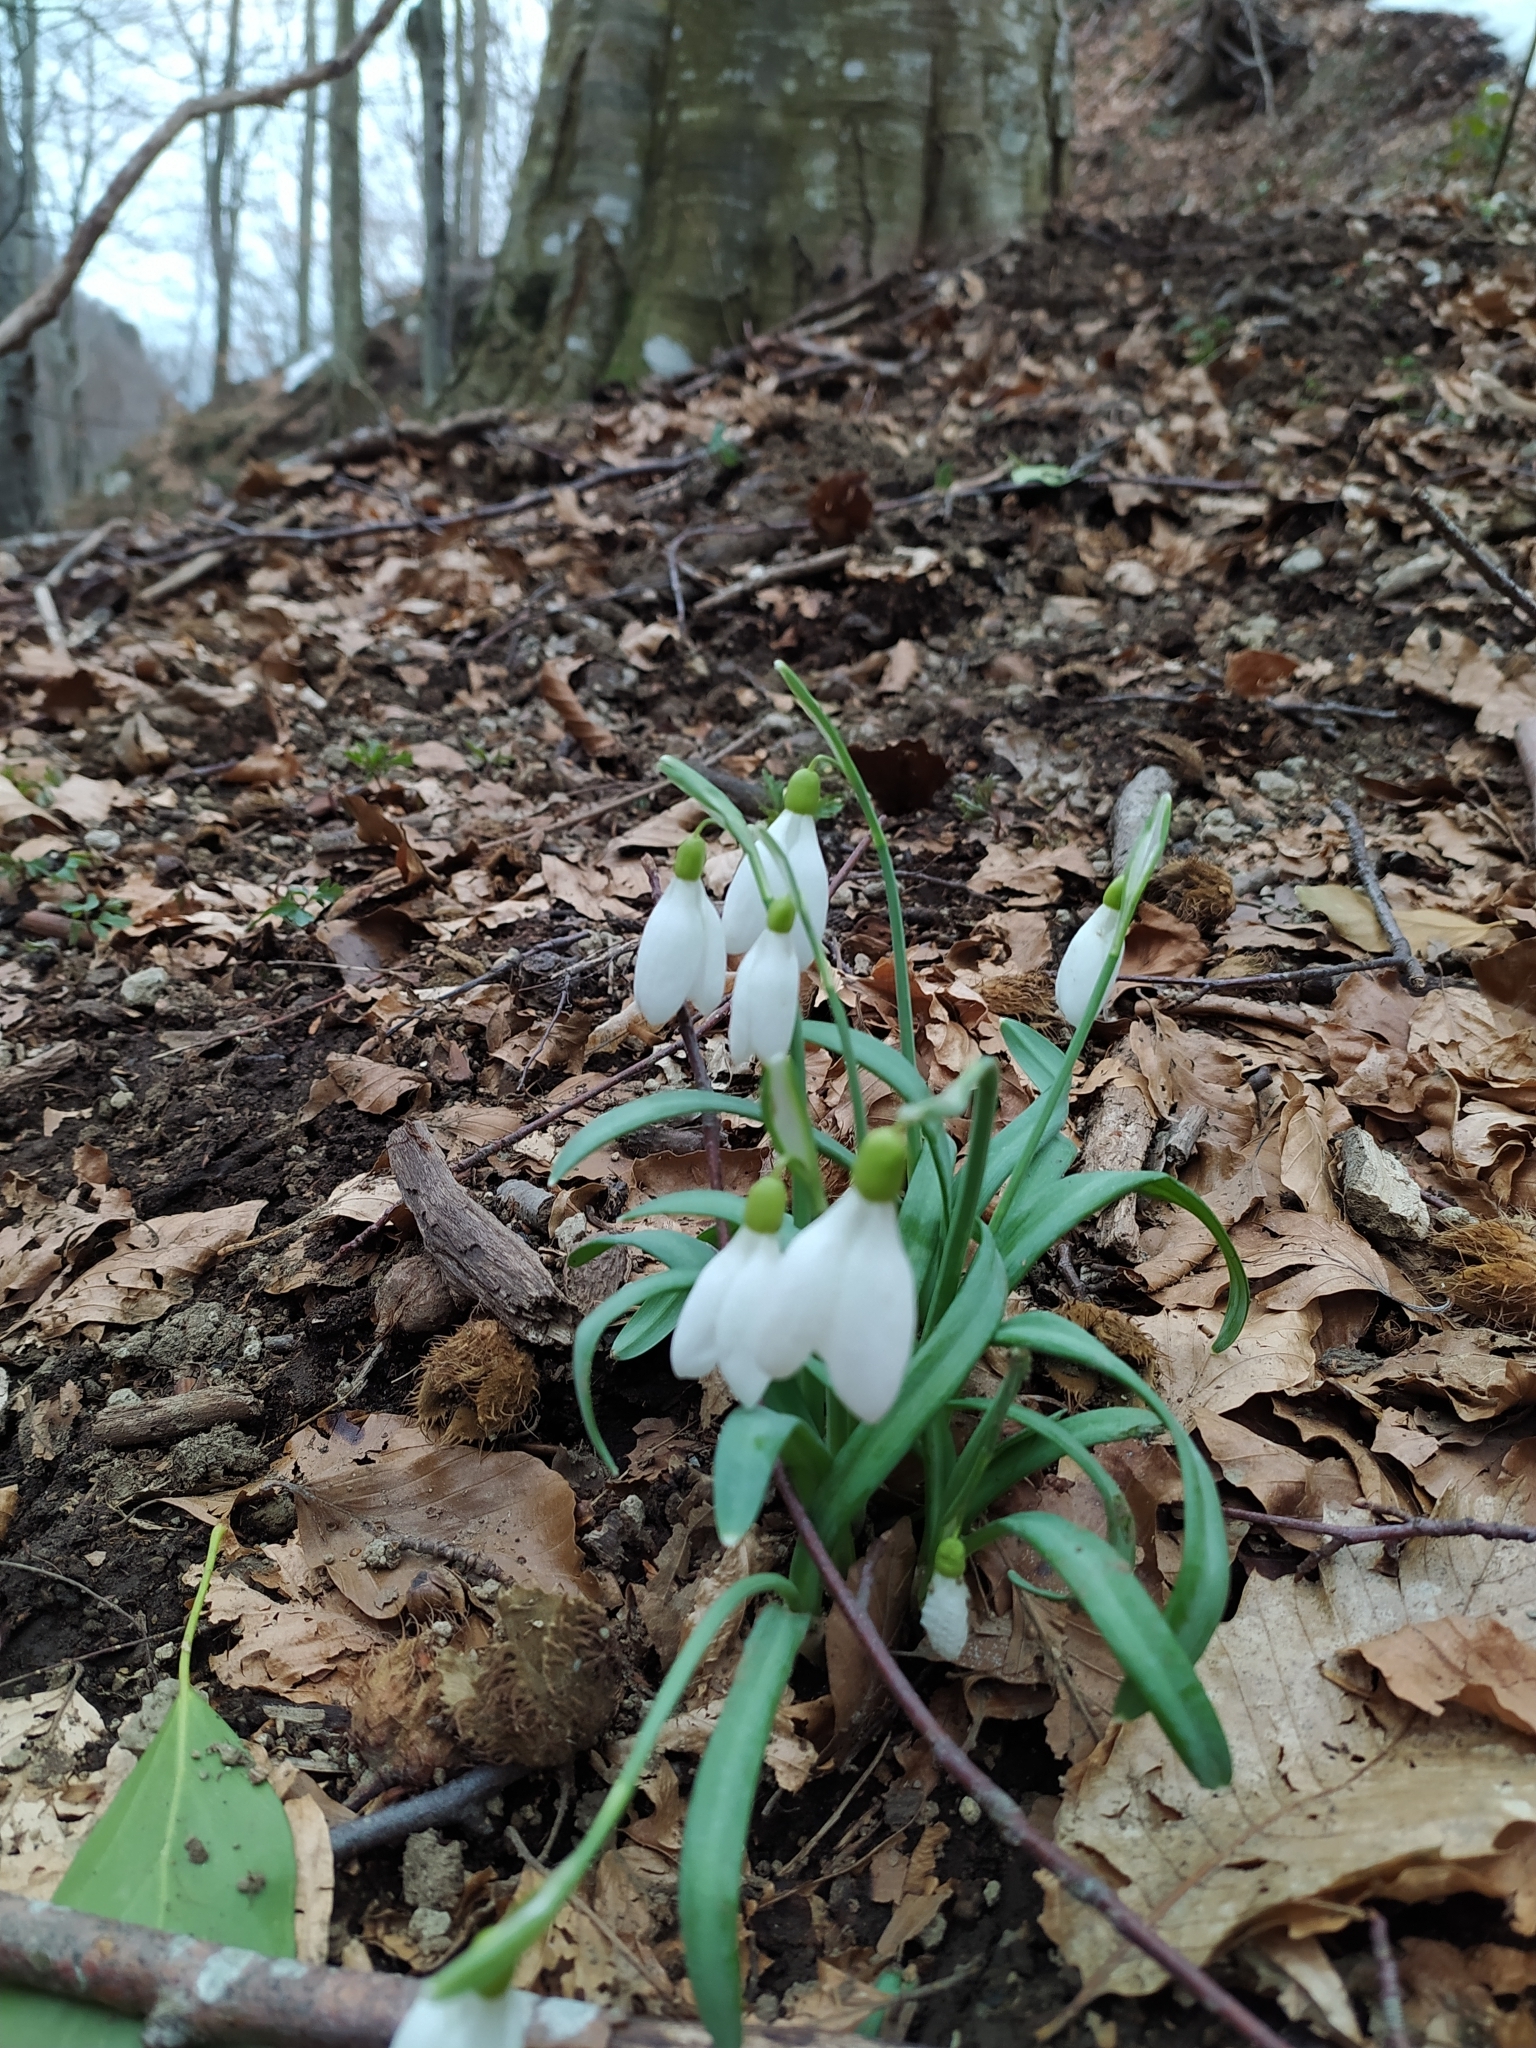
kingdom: Plantae
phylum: Tracheophyta
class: Liliopsida
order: Asparagales
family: Amaryllidaceae
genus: Galanthus
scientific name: Galanthus nivalis
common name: Snowdrop
